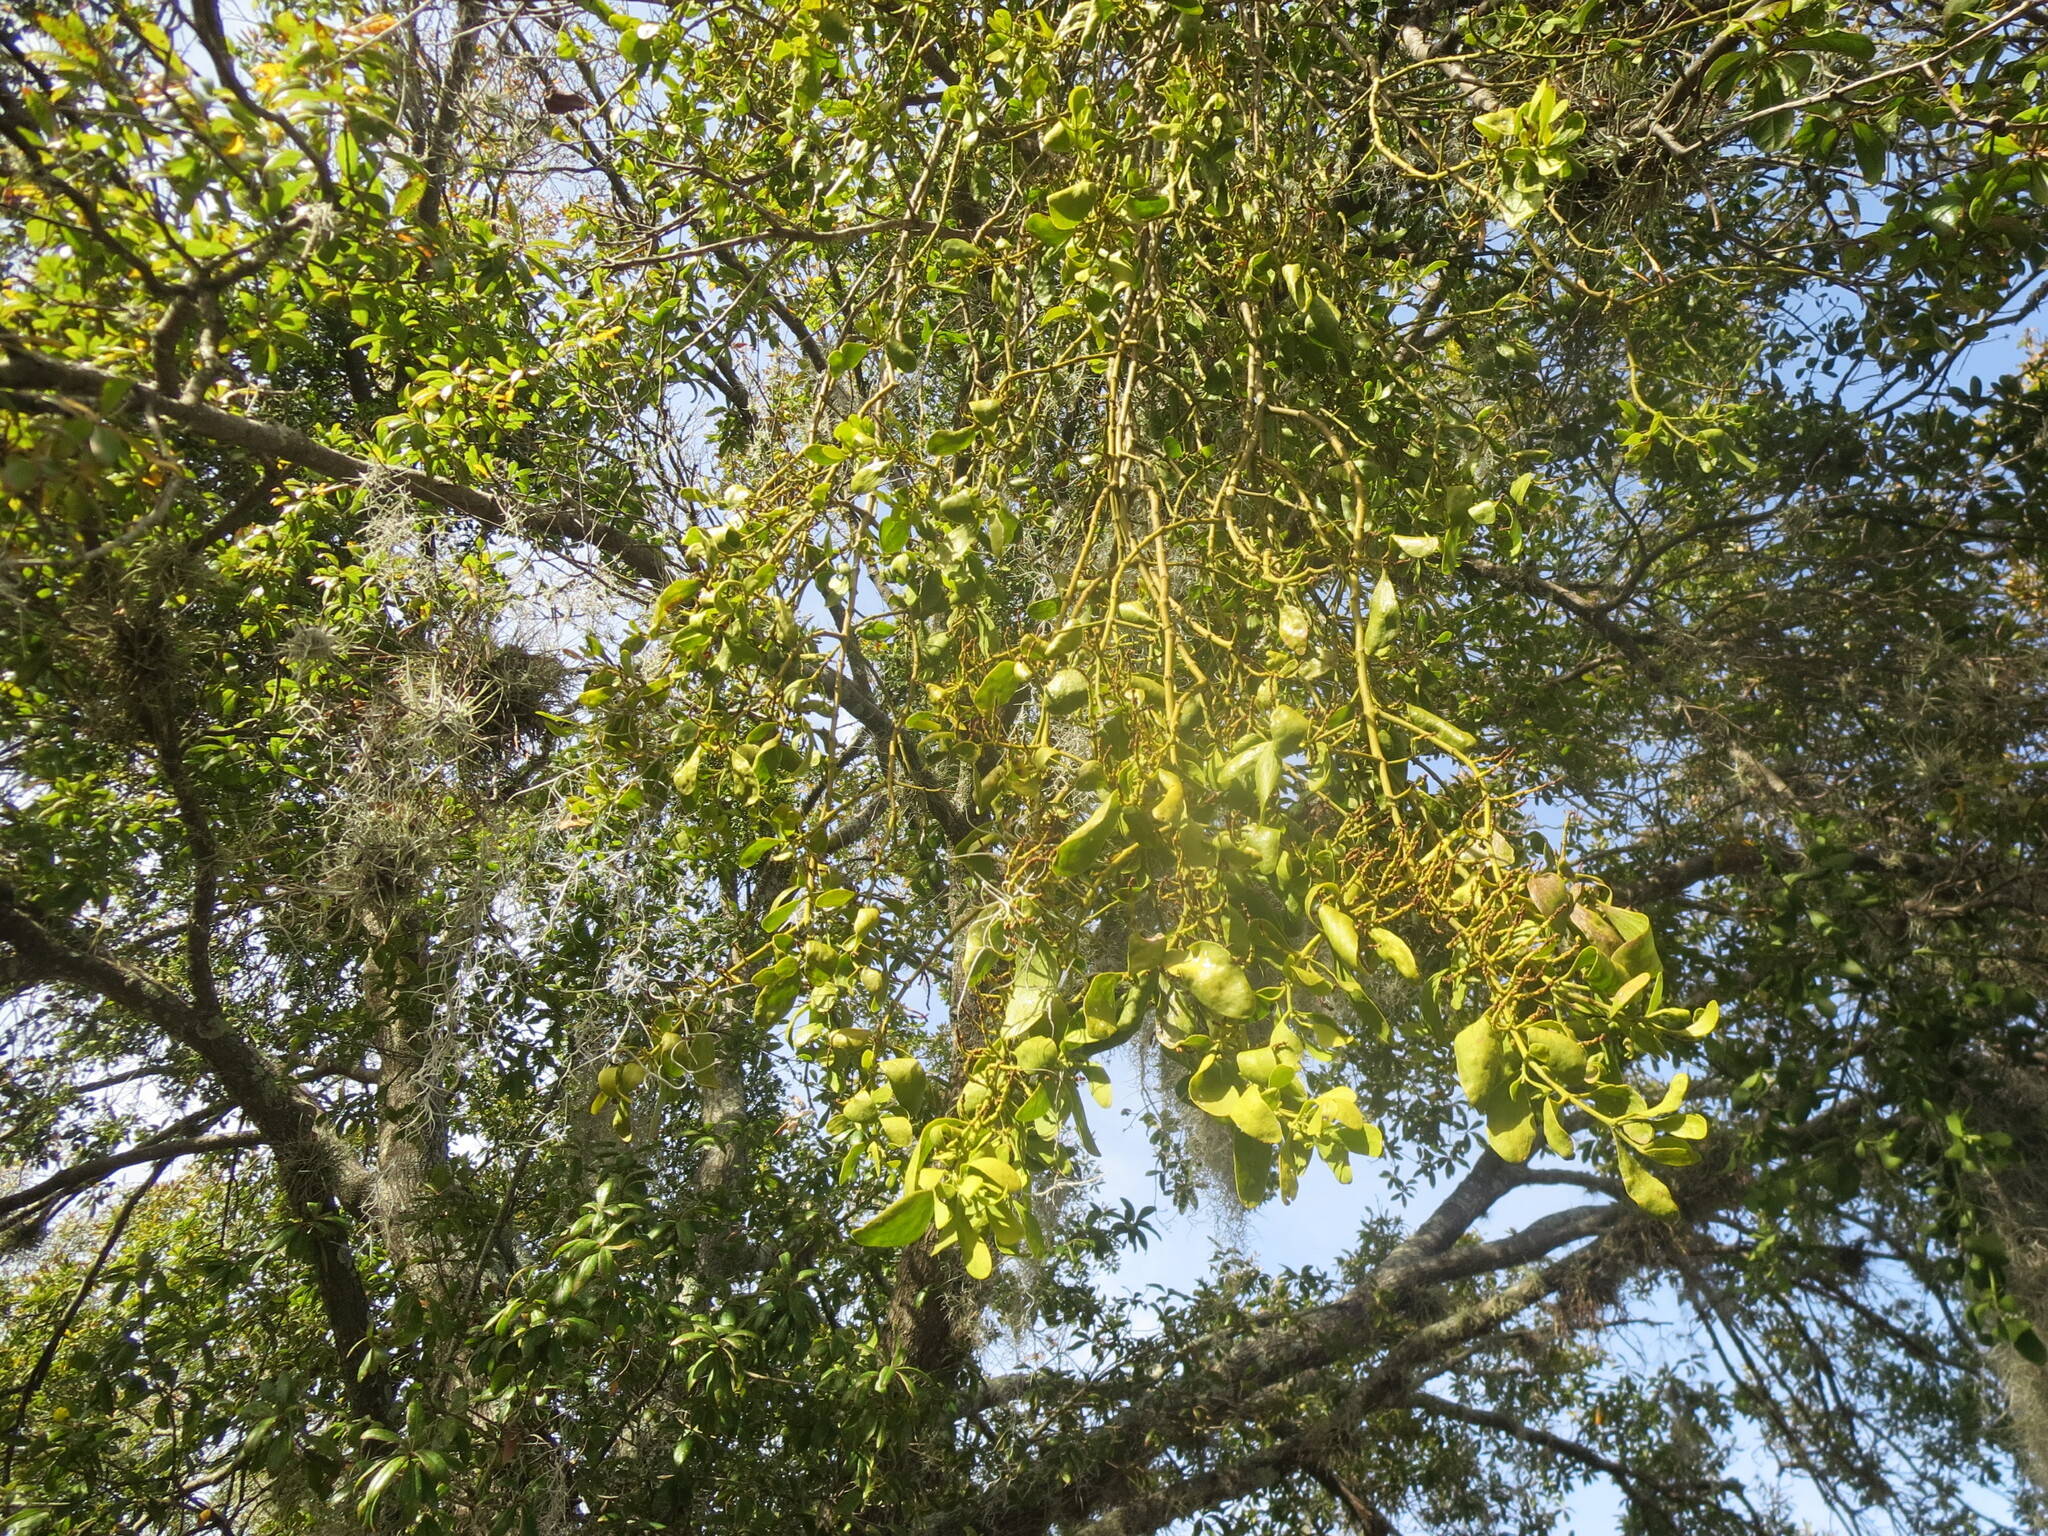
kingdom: Plantae
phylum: Tracheophyta
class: Magnoliopsida
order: Santalales
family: Viscaceae
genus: Phoradendron
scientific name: Phoradendron leucarpum
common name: Pacific mistletoe
